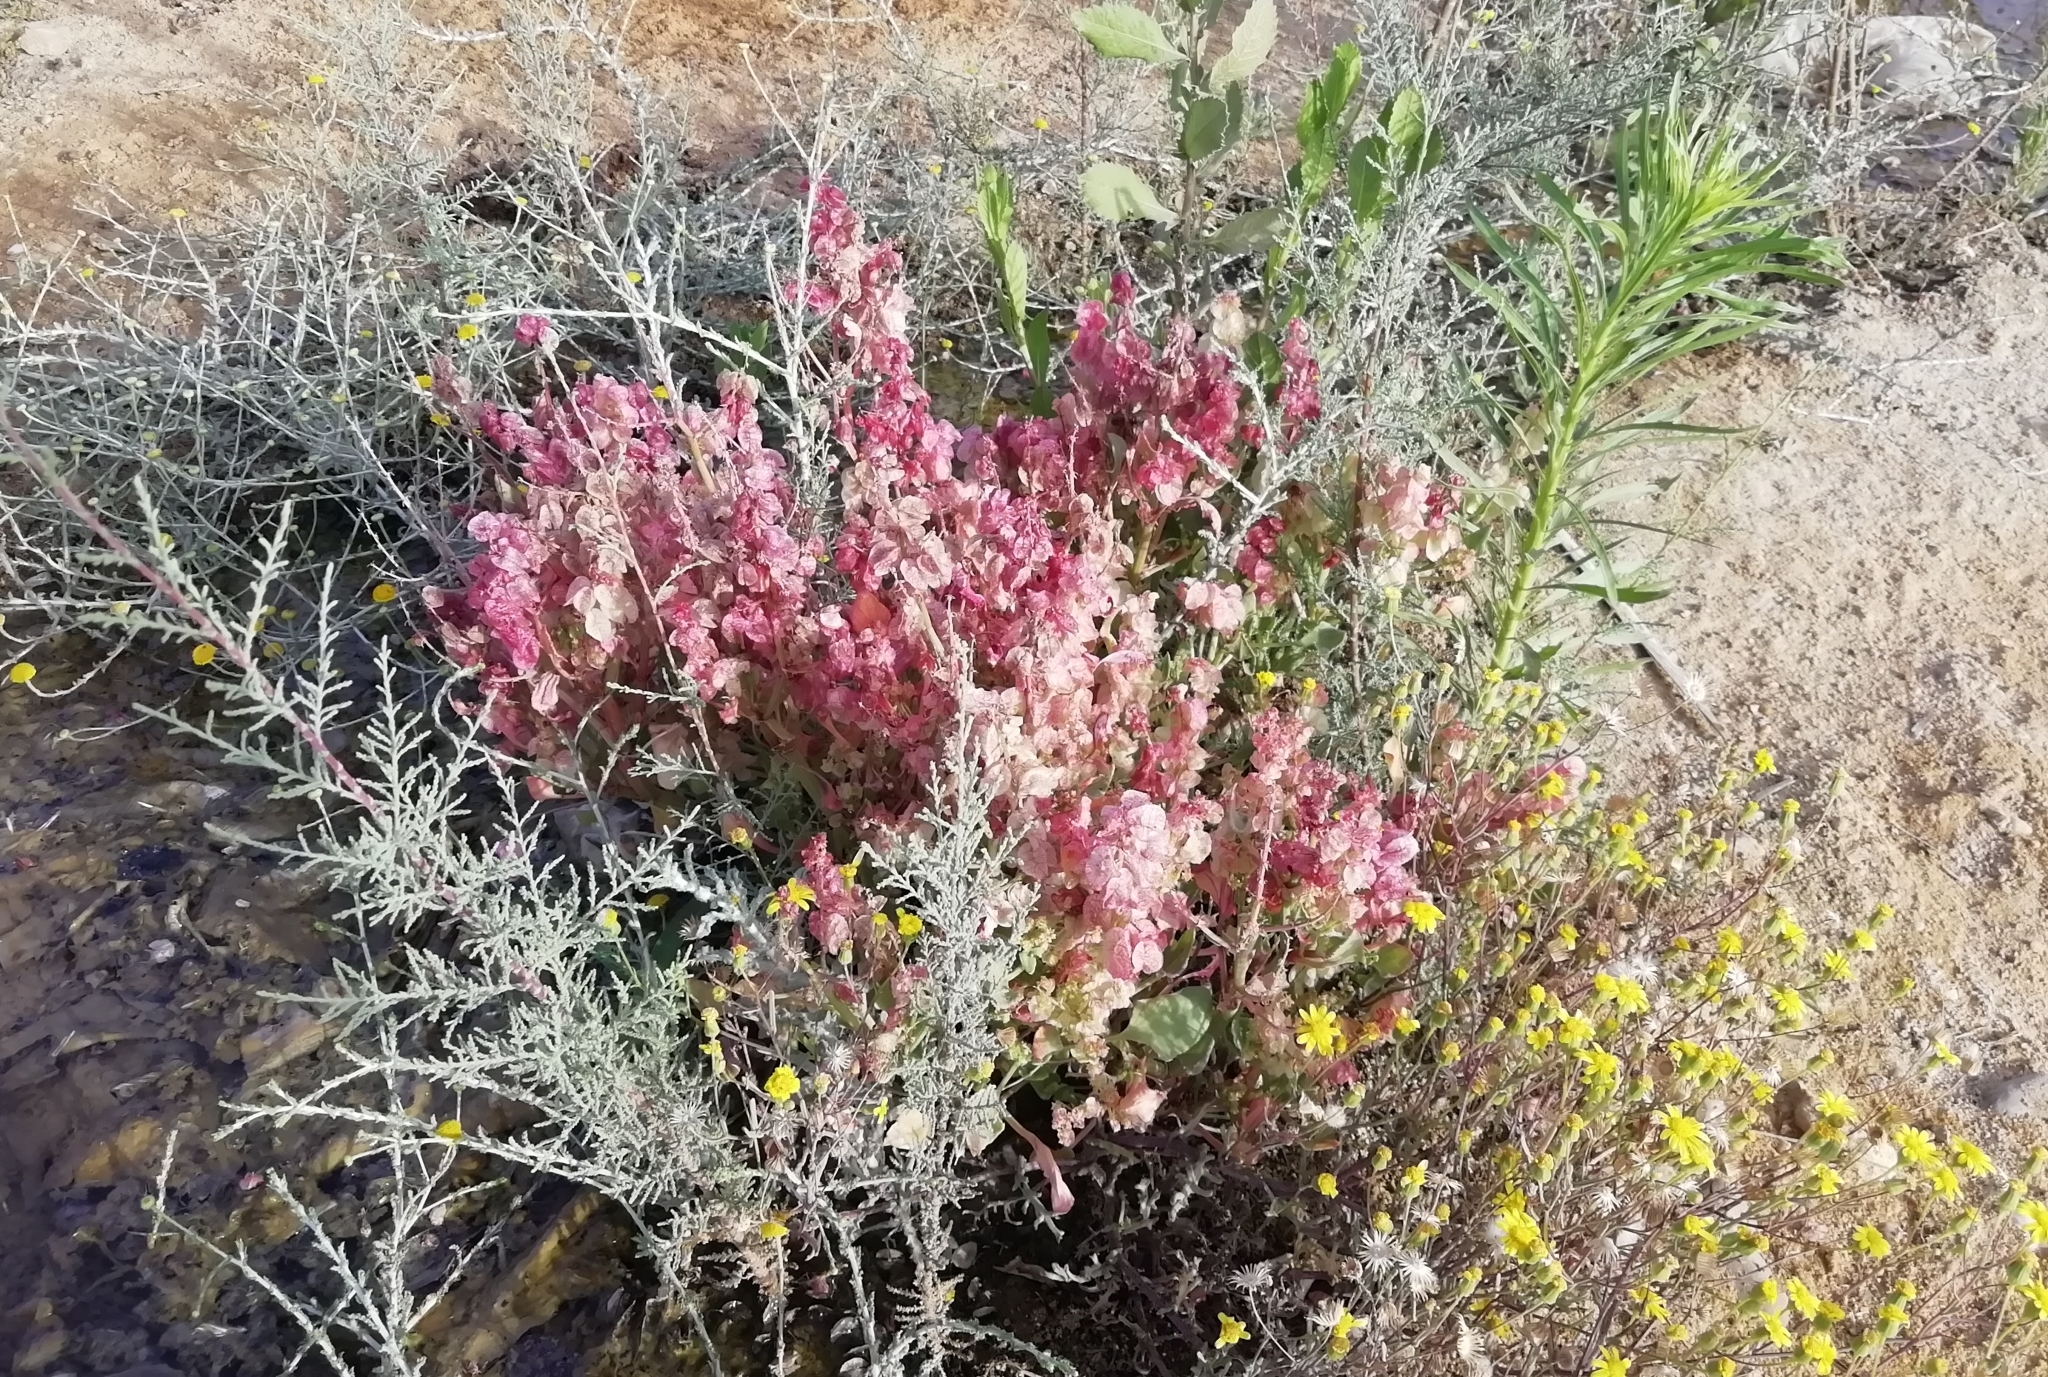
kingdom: Plantae
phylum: Tracheophyta
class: Magnoliopsida
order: Caryophyllales
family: Polygonaceae
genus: Rumex
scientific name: Rumex vesicarius
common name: Bladder dock
